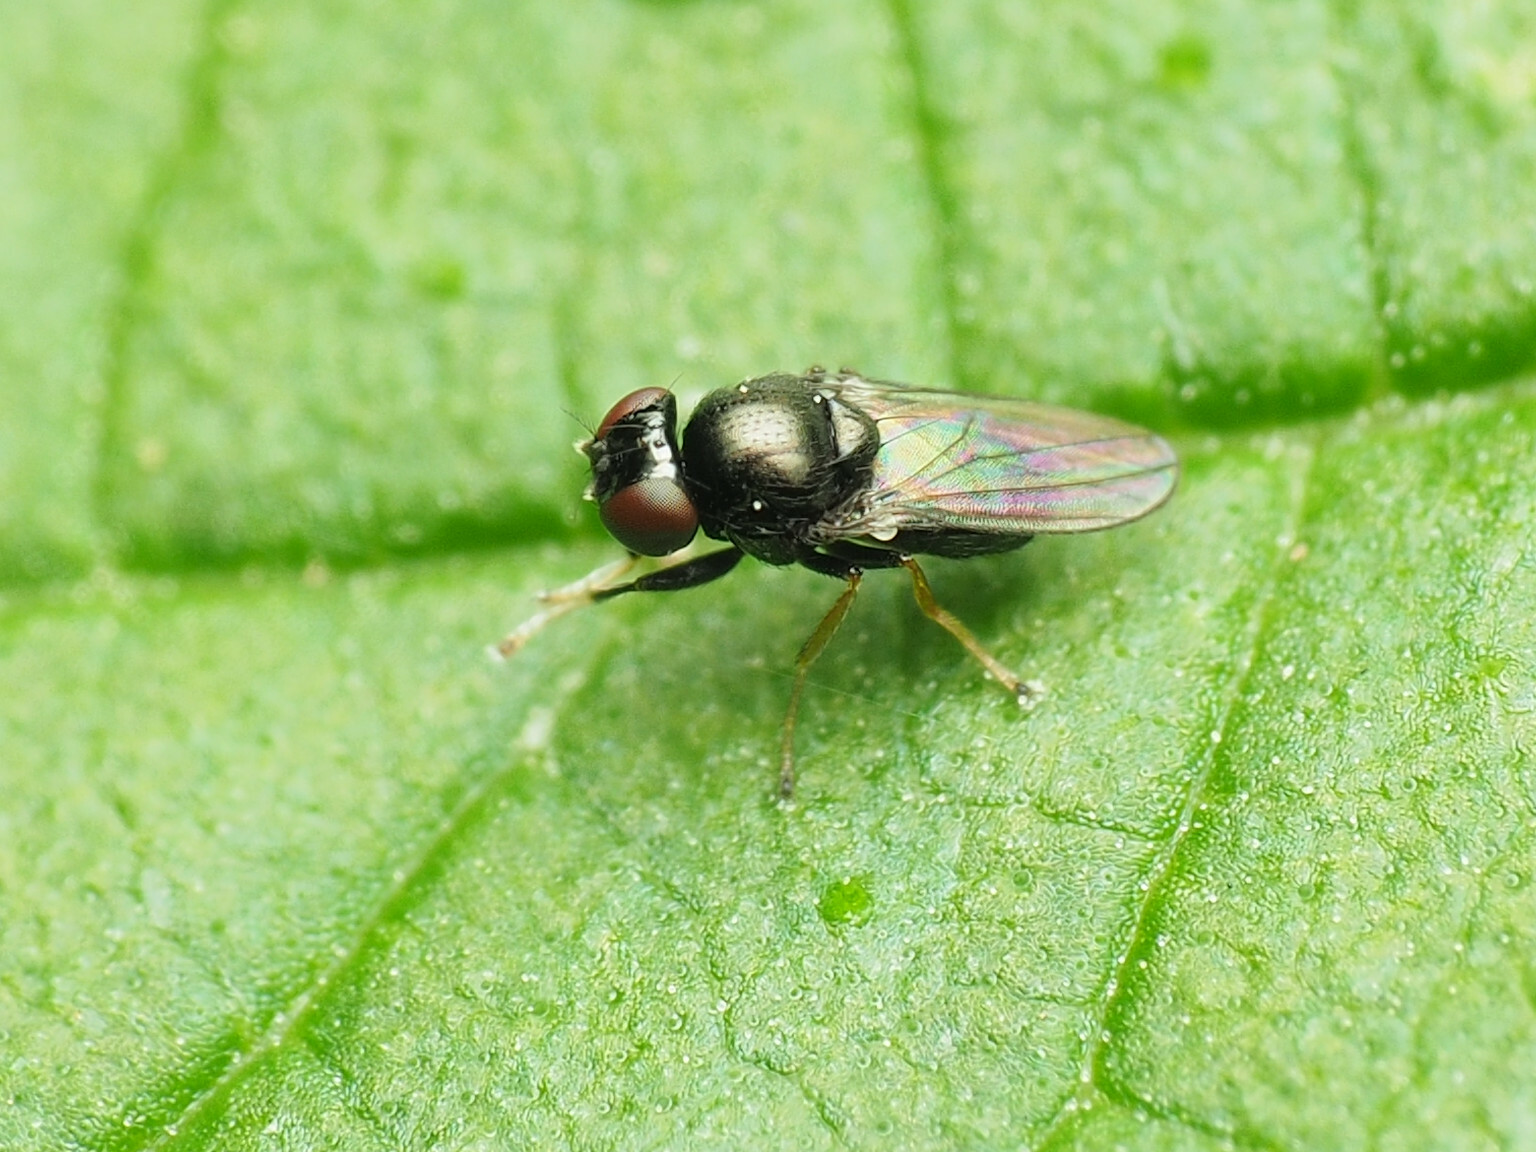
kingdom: Animalia
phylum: Arthropoda
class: Insecta
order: Diptera
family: Ephydridae
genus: Athyroglossa
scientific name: Athyroglossa glaphyropus
